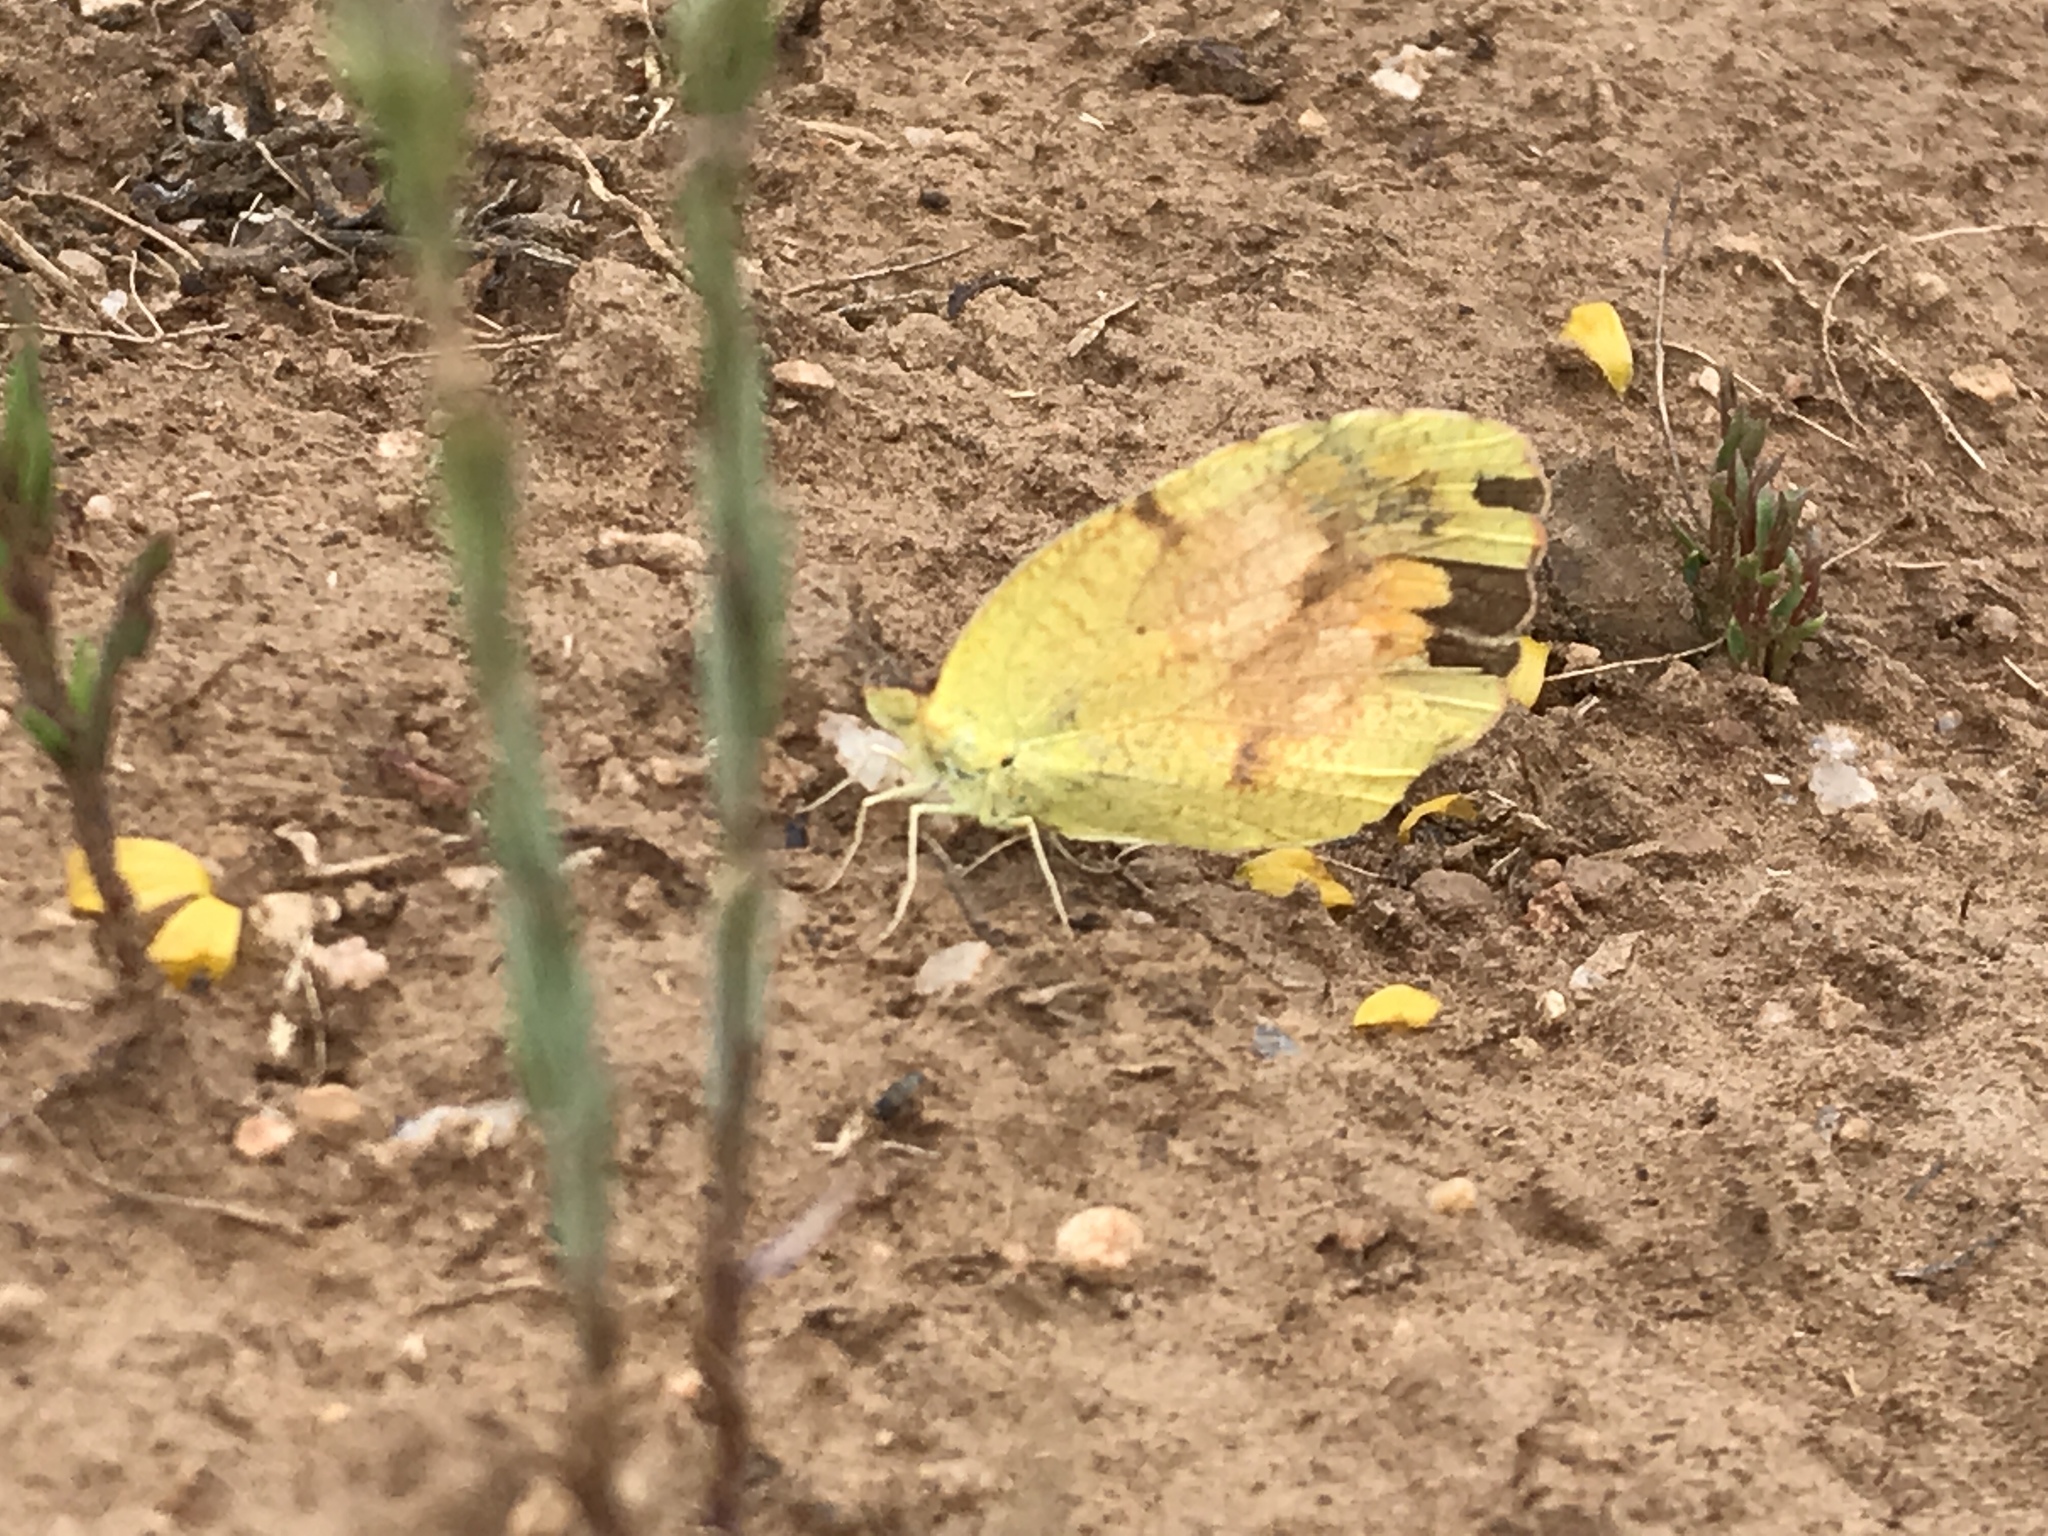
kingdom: Animalia
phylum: Arthropoda
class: Insecta
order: Lepidoptera
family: Pieridae
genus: Abaeis
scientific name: Abaeis nicippe
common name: Sleepy orange
